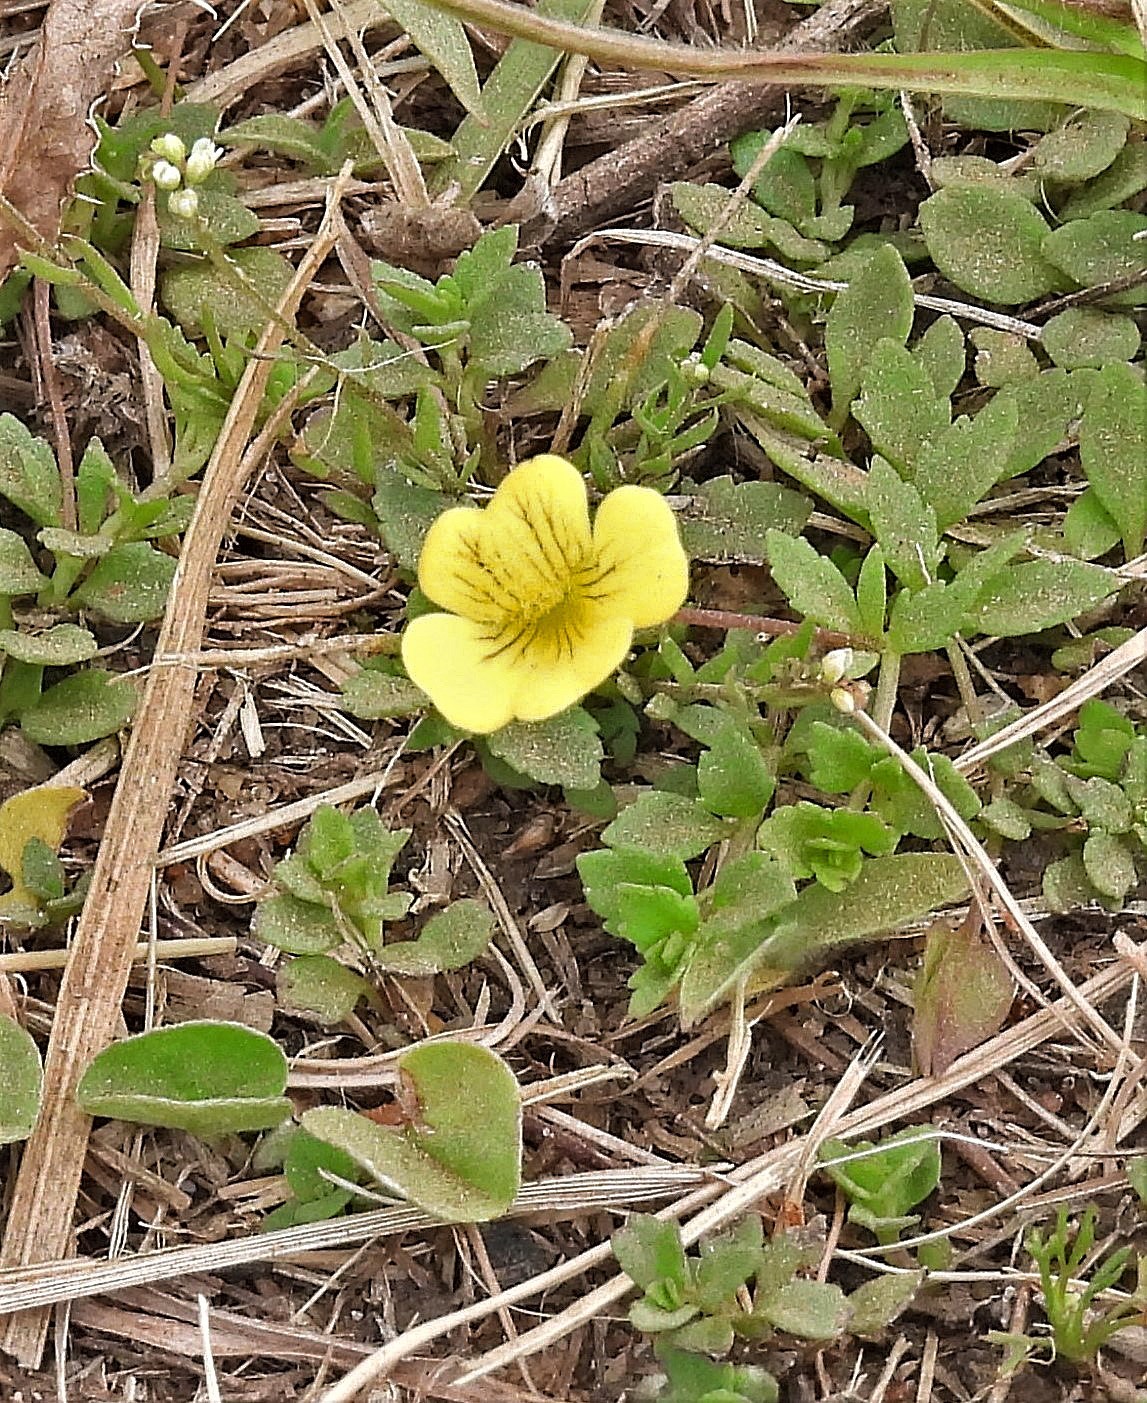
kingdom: Plantae
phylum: Tracheophyta
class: Magnoliopsida
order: Lamiales
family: Plantaginaceae
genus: Mecardonia
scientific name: Mecardonia procumbens
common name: Baby jump-up
